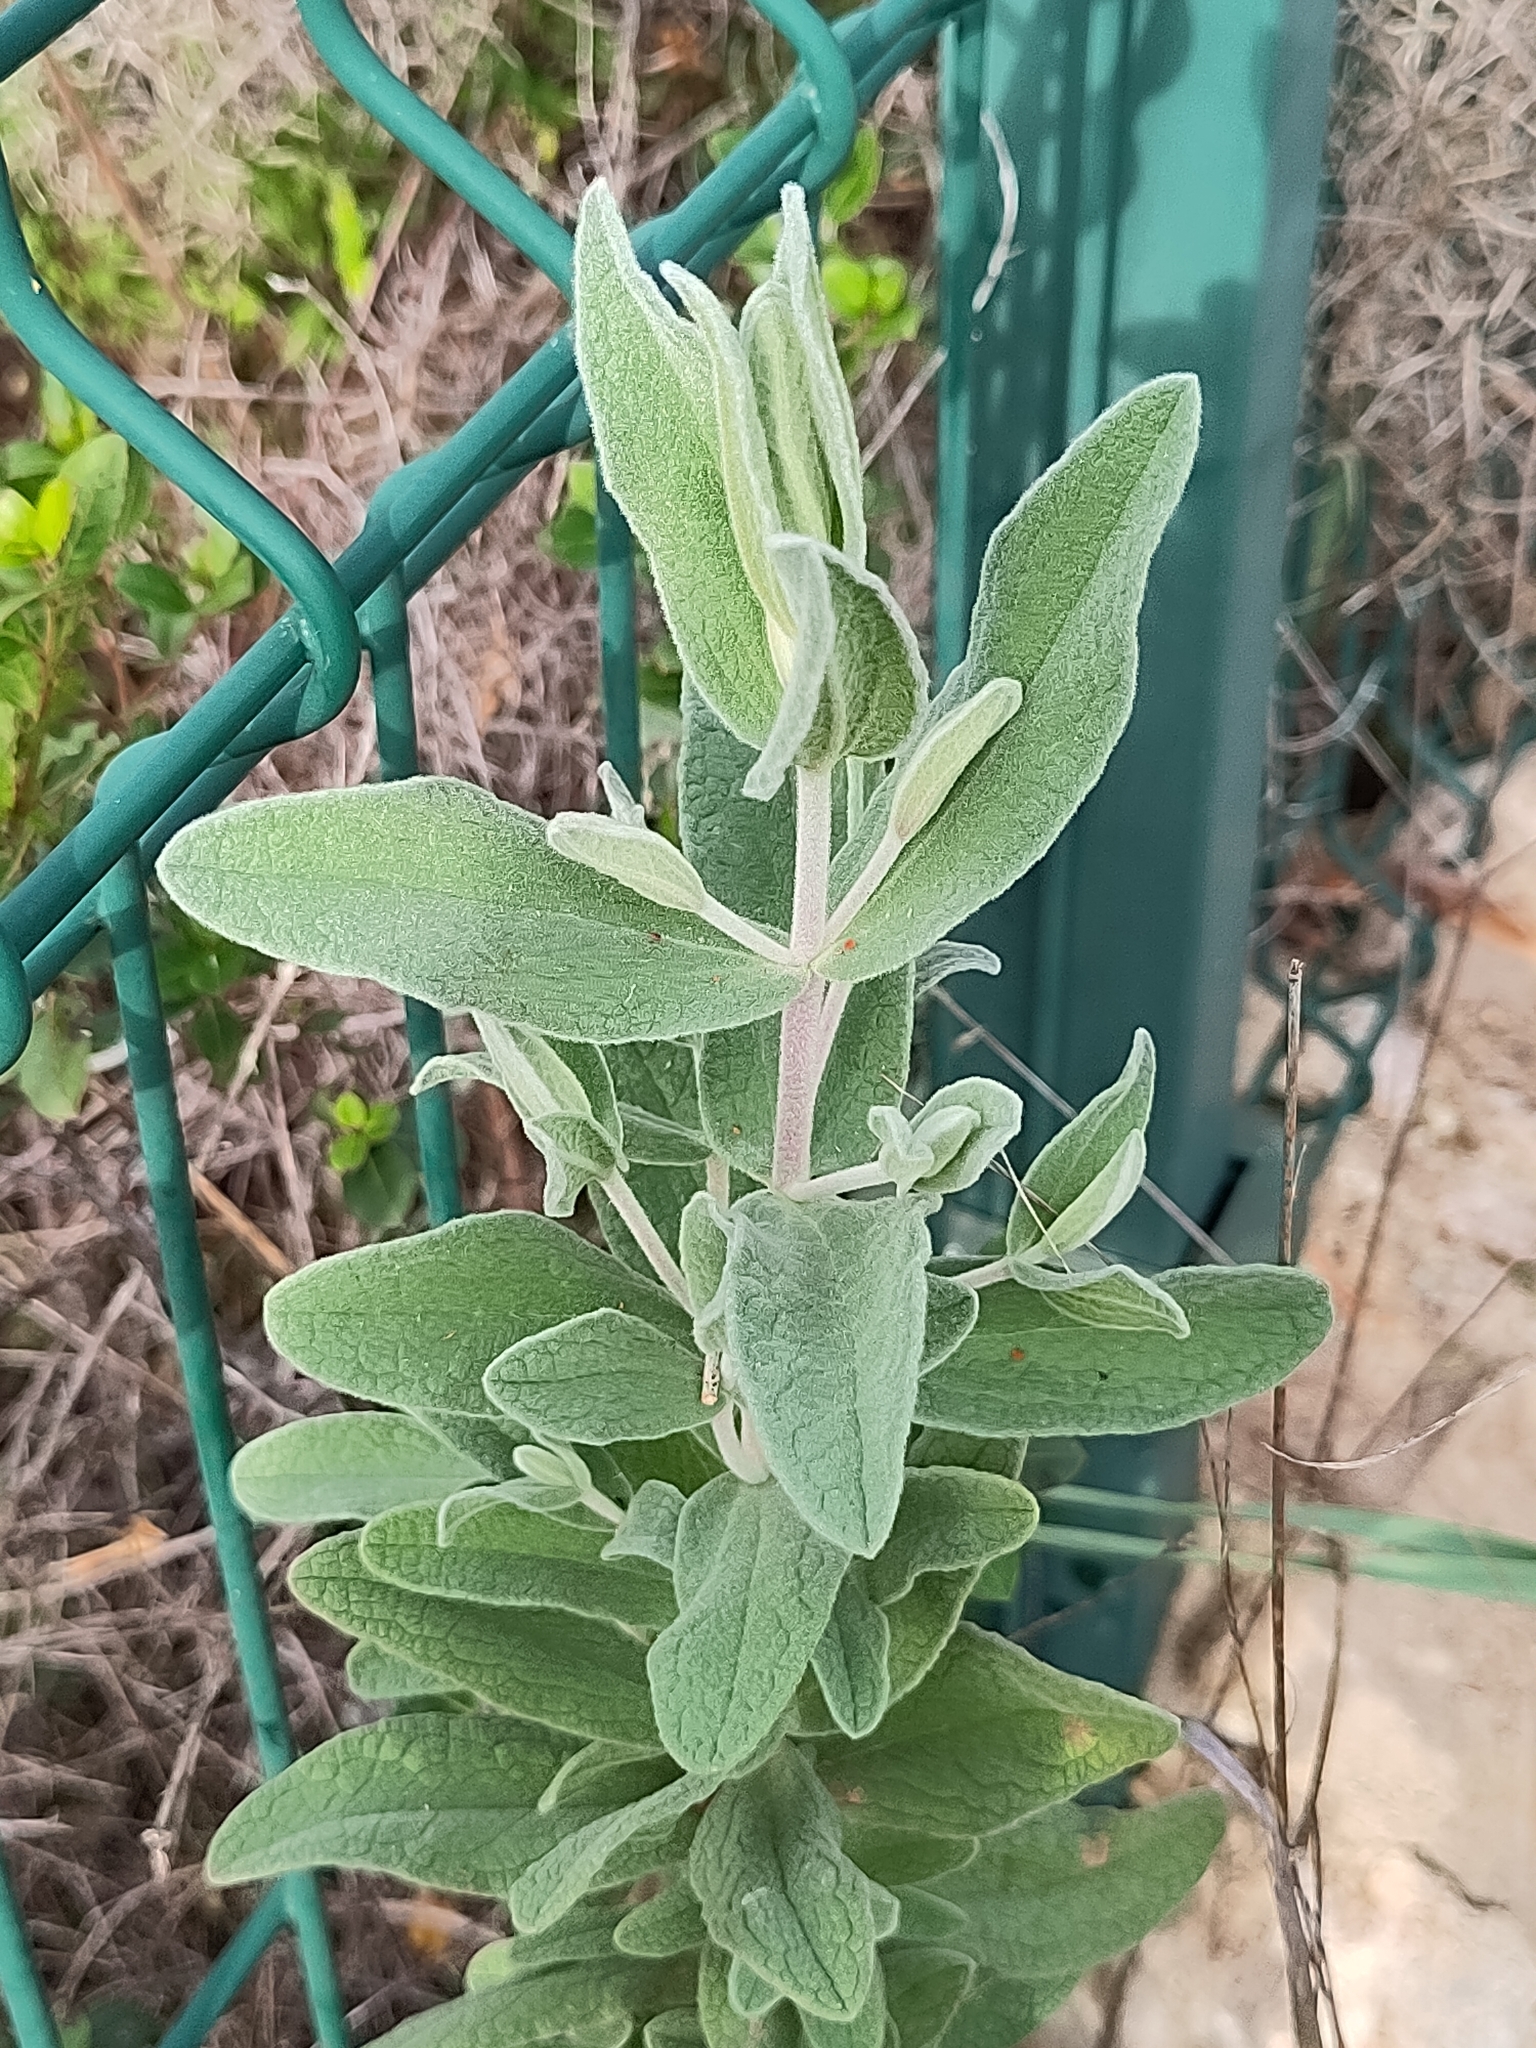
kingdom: Plantae
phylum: Tracheophyta
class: Magnoliopsida
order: Malvales
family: Cistaceae
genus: Cistus
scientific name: Cistus albidus
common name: White-leaf rock-rose
